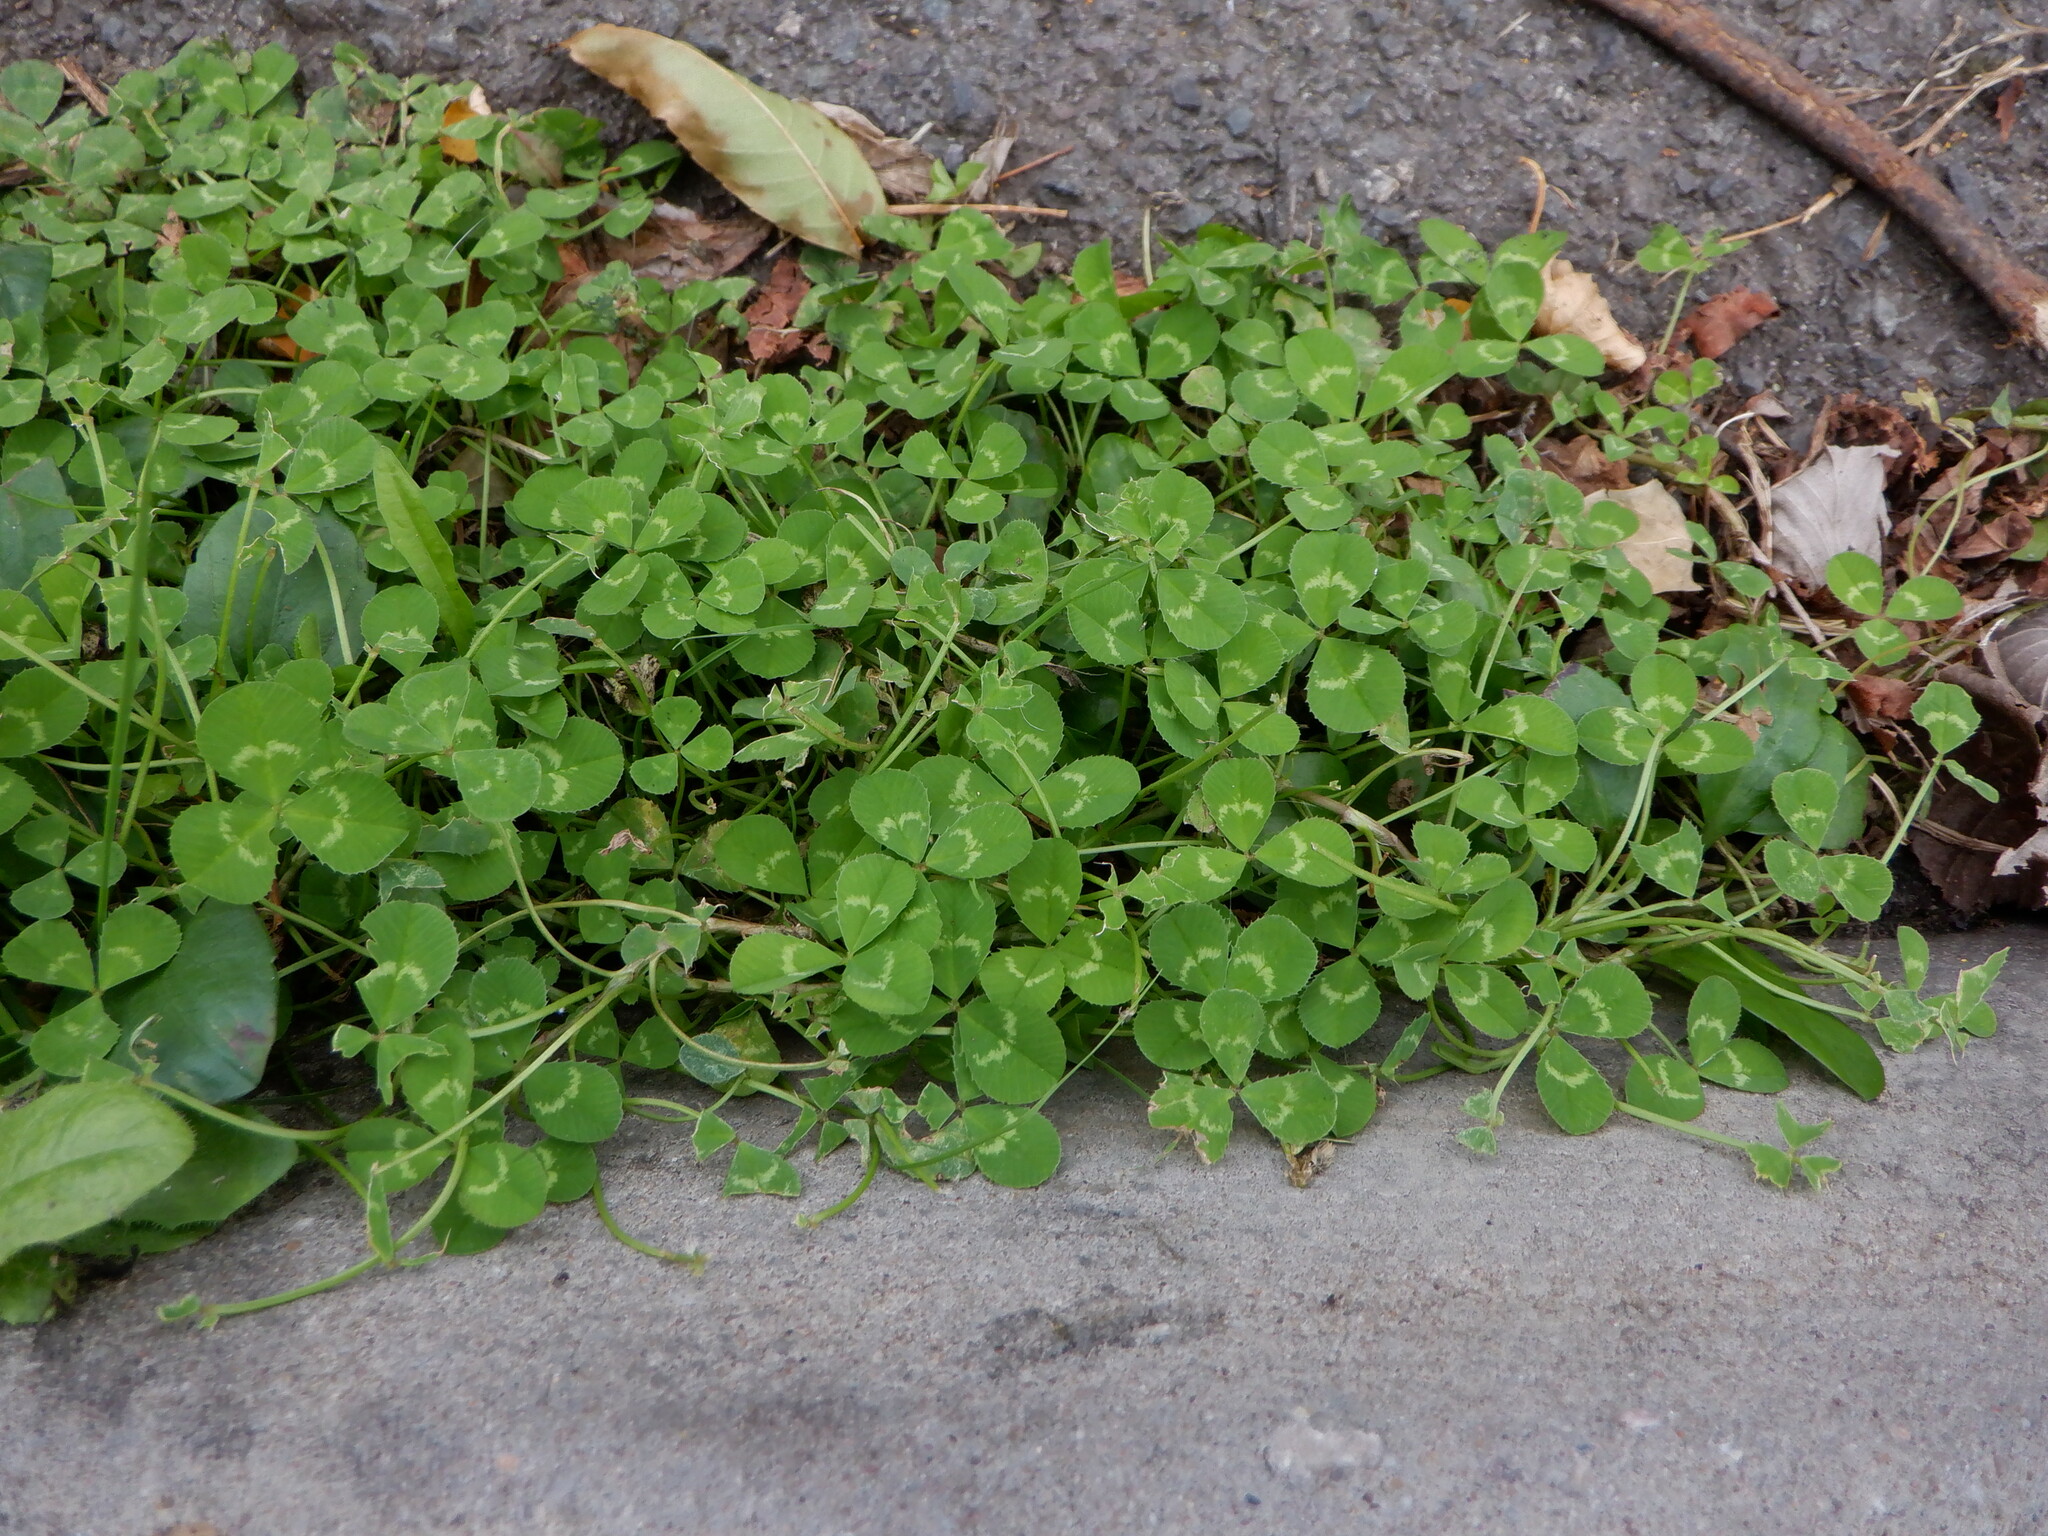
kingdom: Plantae
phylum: Tracheophyta
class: Magnoliopsida
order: Fabales
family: Fabaceae
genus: Trifolium
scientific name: Trifolium repens
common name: White clover
